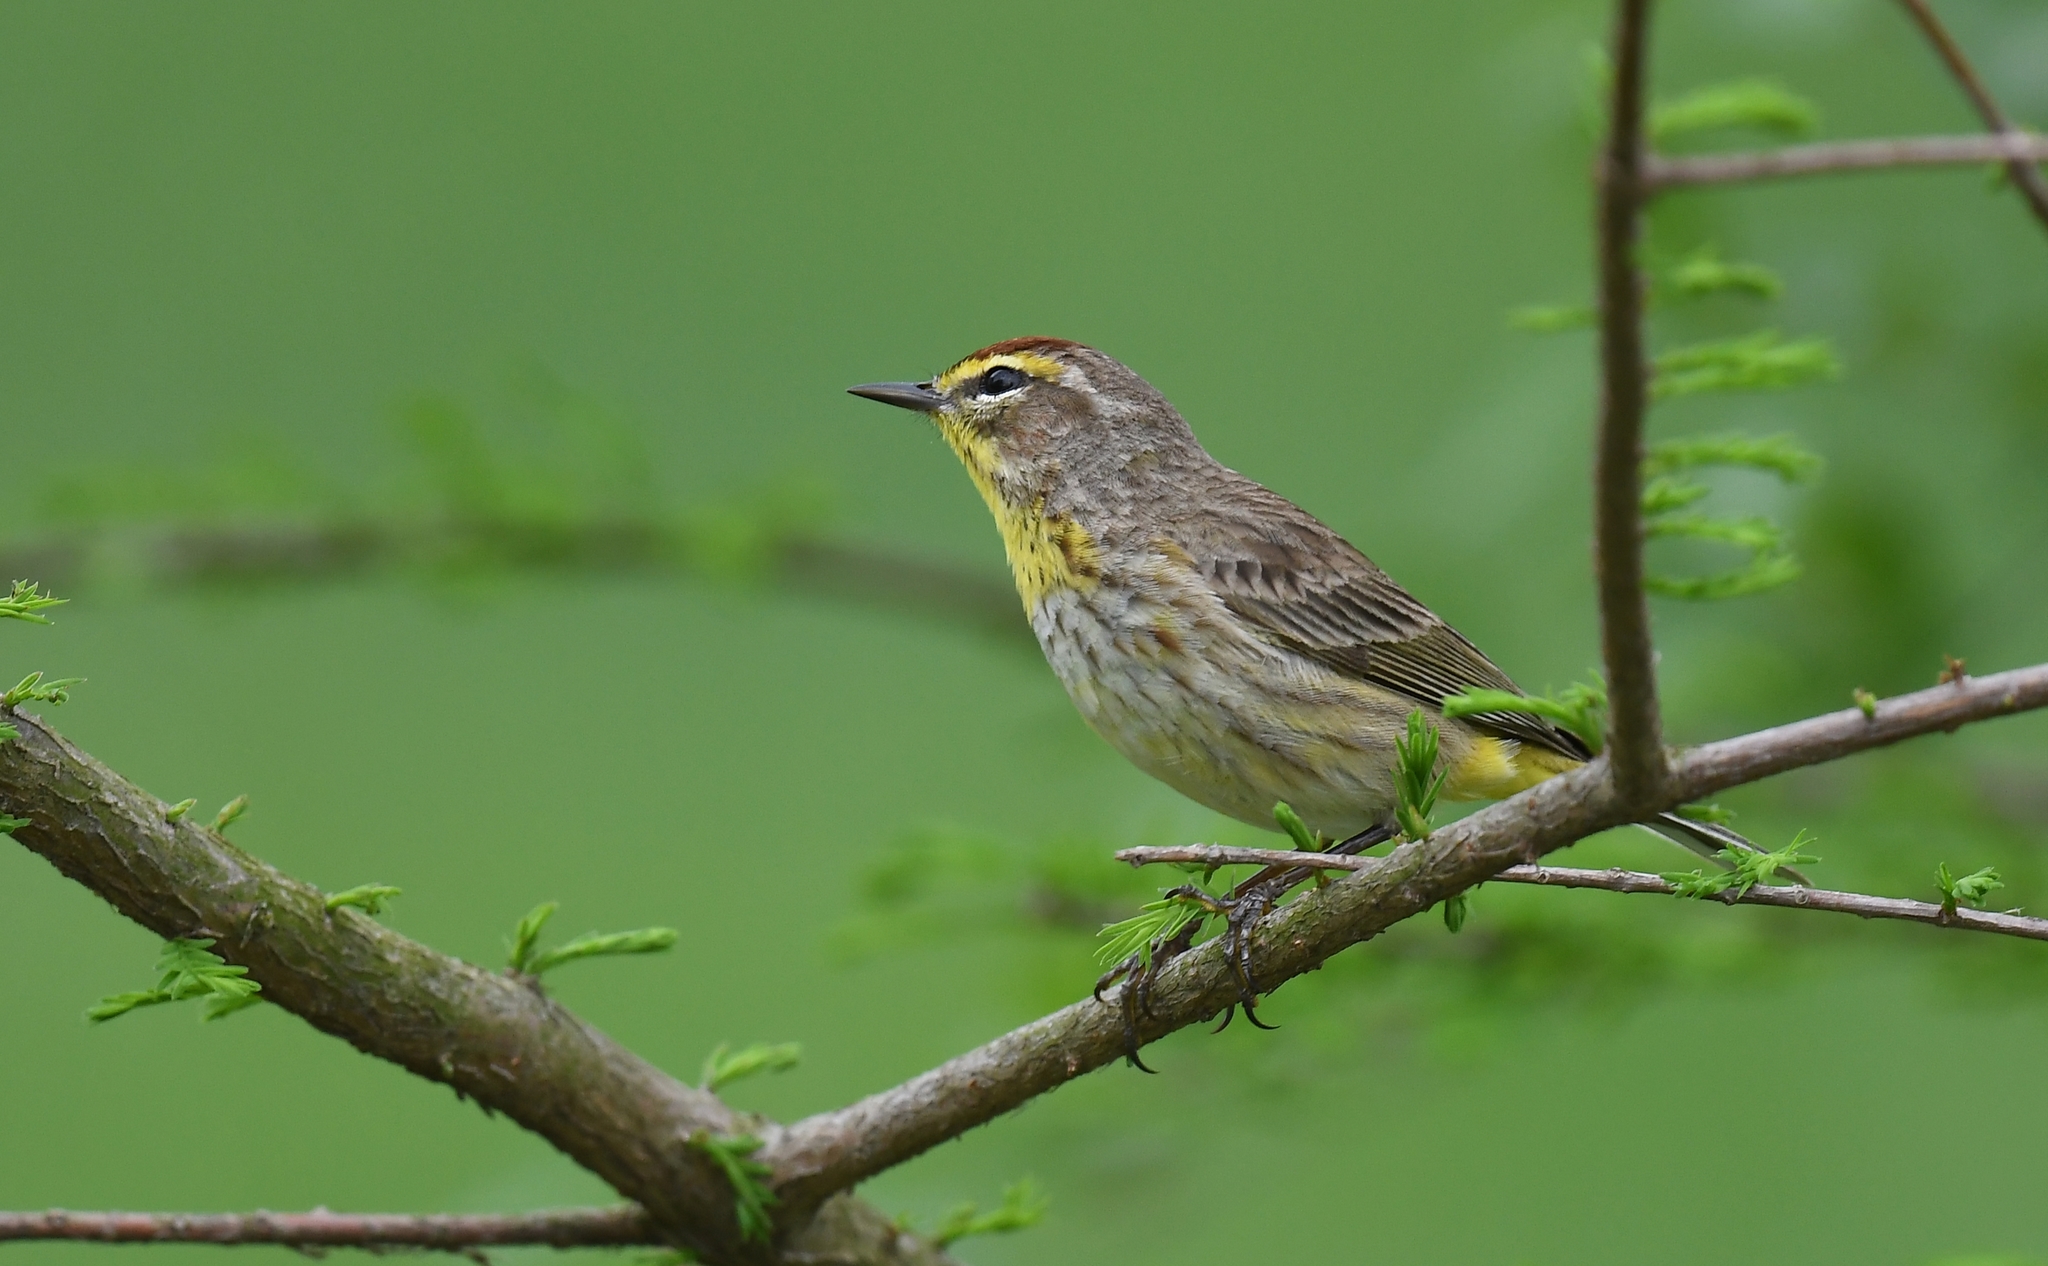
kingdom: Animalia
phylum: Chordata
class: Aves
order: Passeriformes
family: Parulidae
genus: Setophaga
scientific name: Setophaga palmarum
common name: Palm warbler
